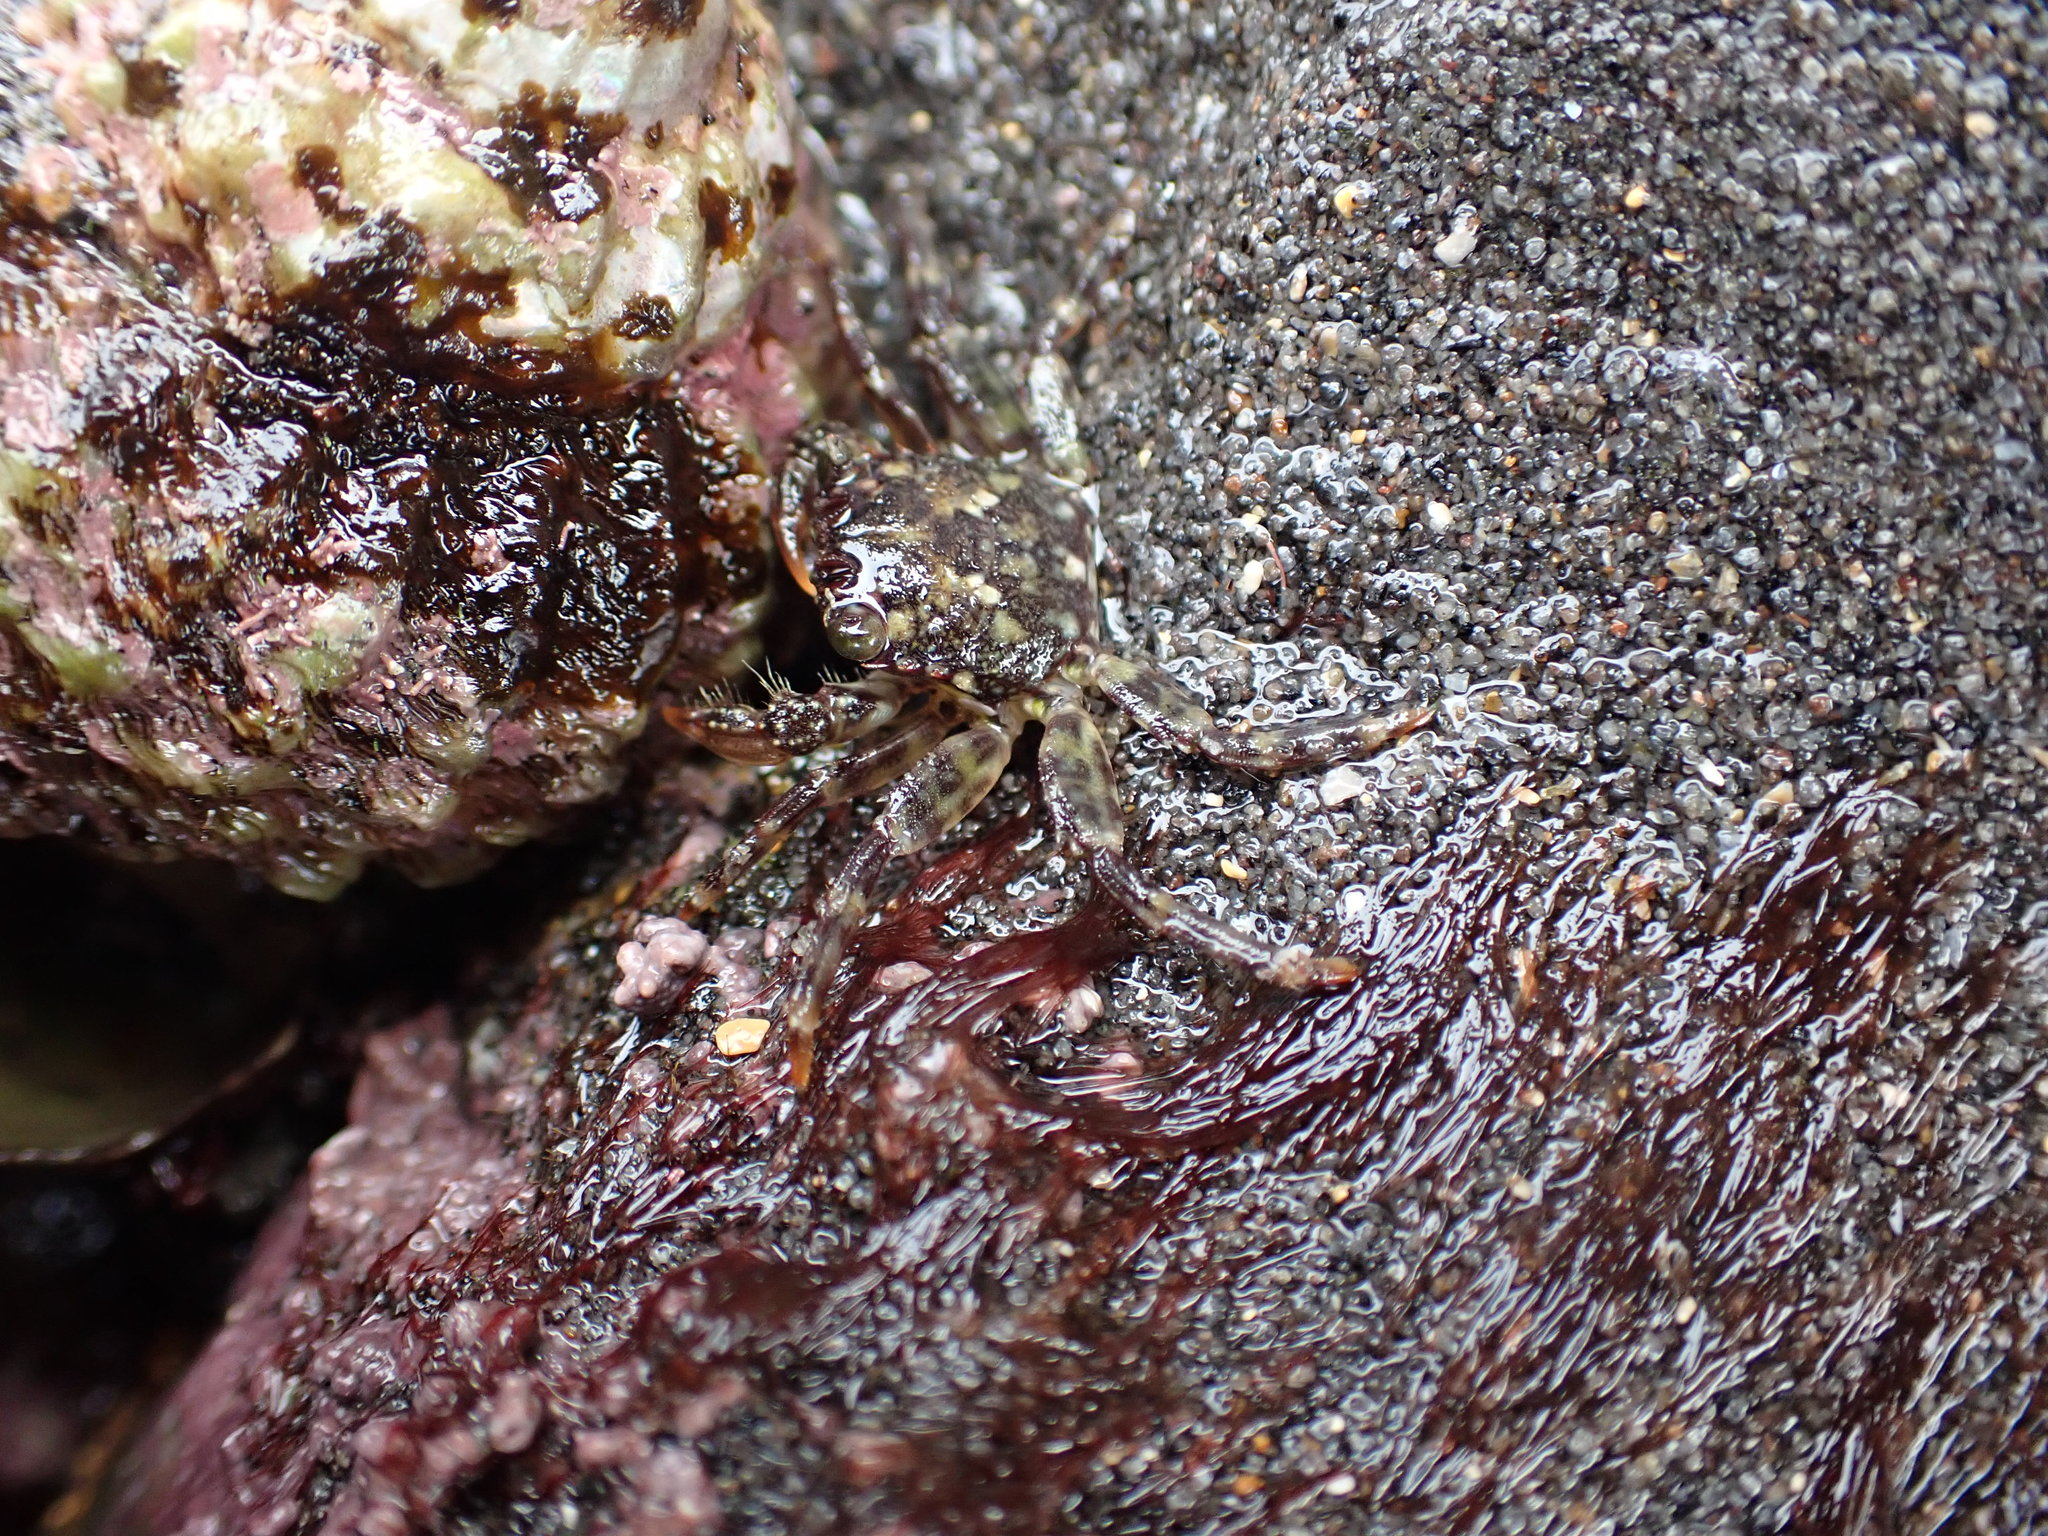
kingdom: Animalia
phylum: Arthropoda
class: Malacostraca
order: Decapoda
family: Plagusiidae
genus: Guinusia
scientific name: Guinusia chabrus
